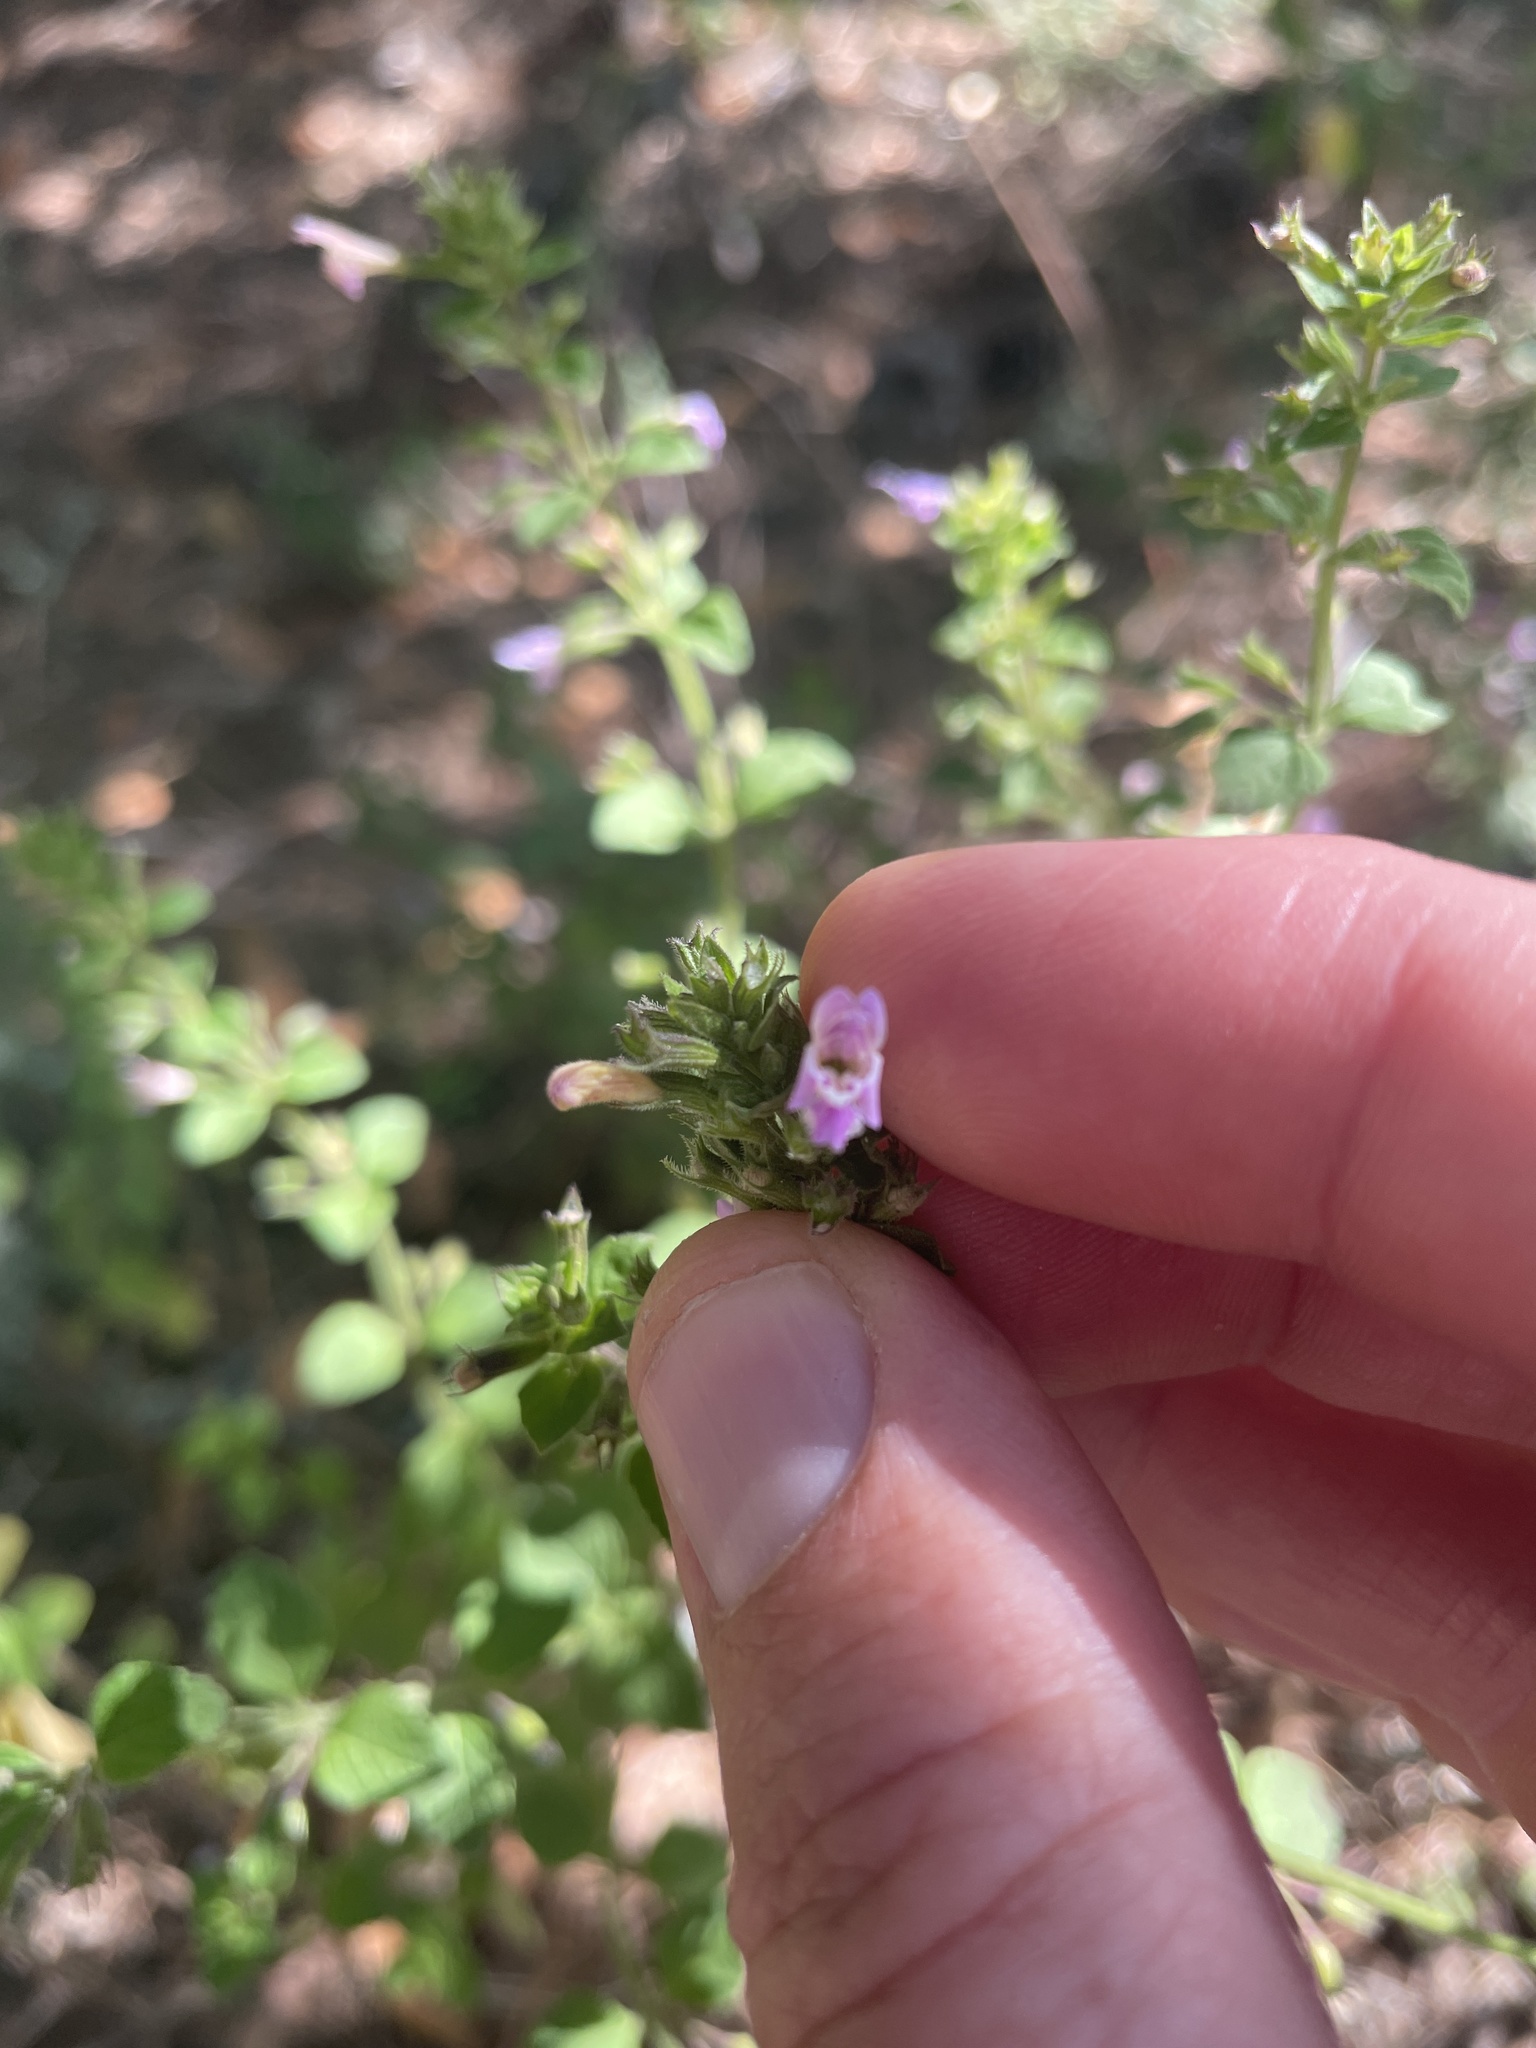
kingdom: Plantae
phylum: Tracheophyta
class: Magnoliopsida
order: Lamiales
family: Lamiaceae
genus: Clinopodium
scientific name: Clinopodium menthifolium
